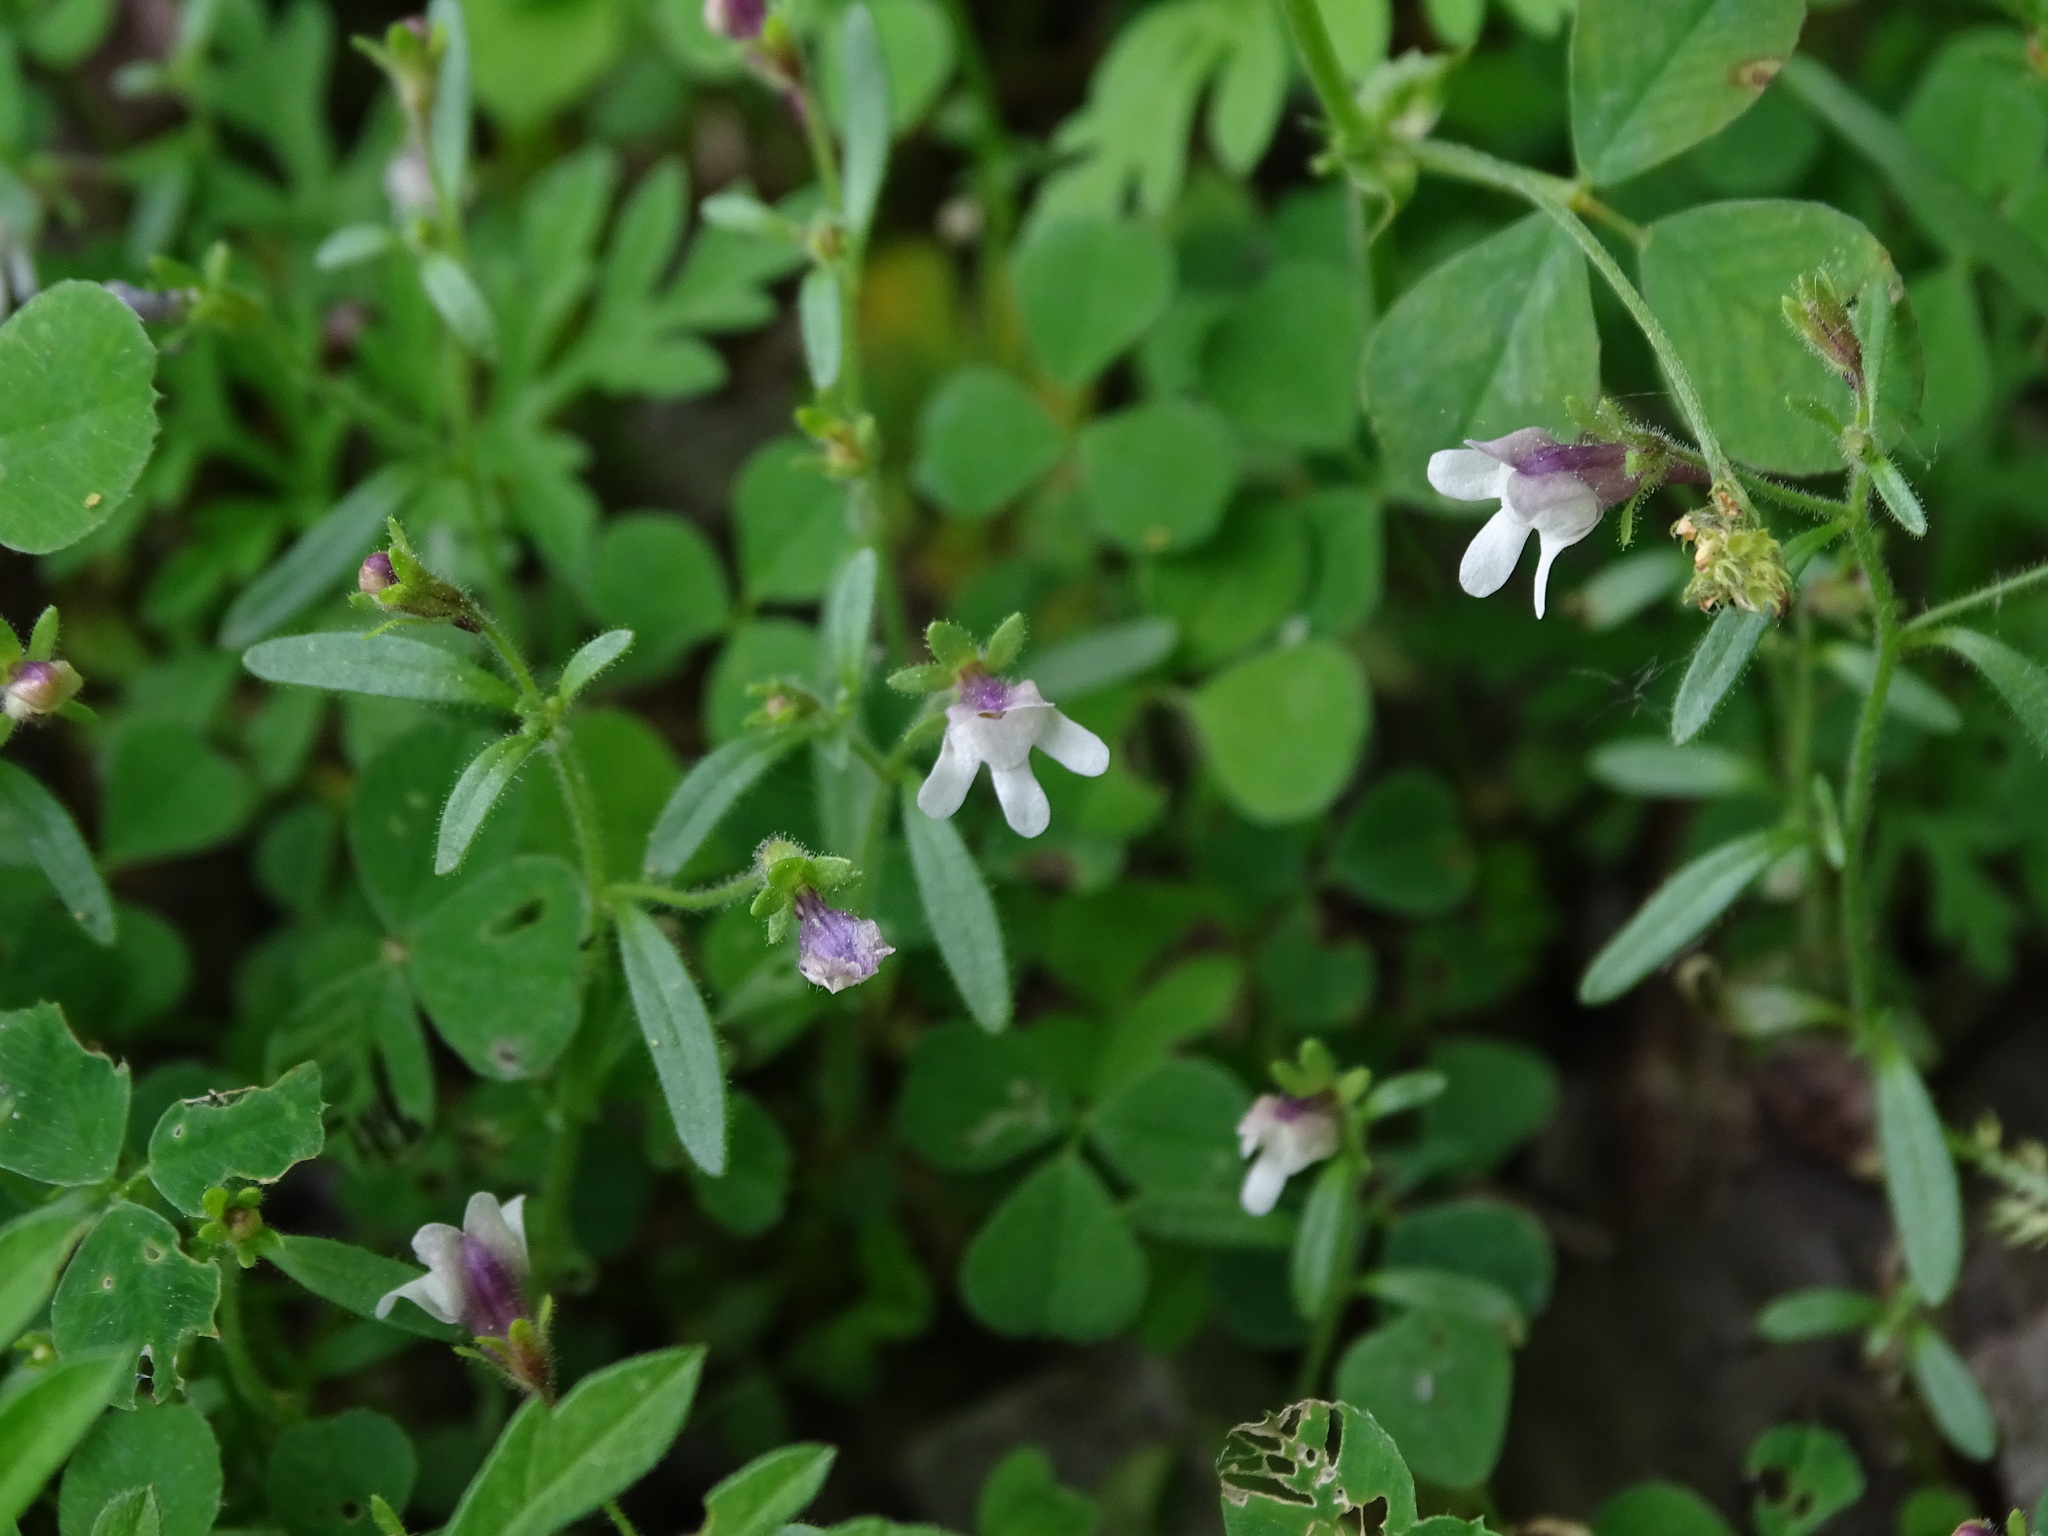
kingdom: Plantae
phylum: Tracheophyta
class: Magnoliopsida
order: Lamiales
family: Plantaginaceae
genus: Chaenorhinum
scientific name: Chaenorhinum minus
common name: Dwarf snapdragon
